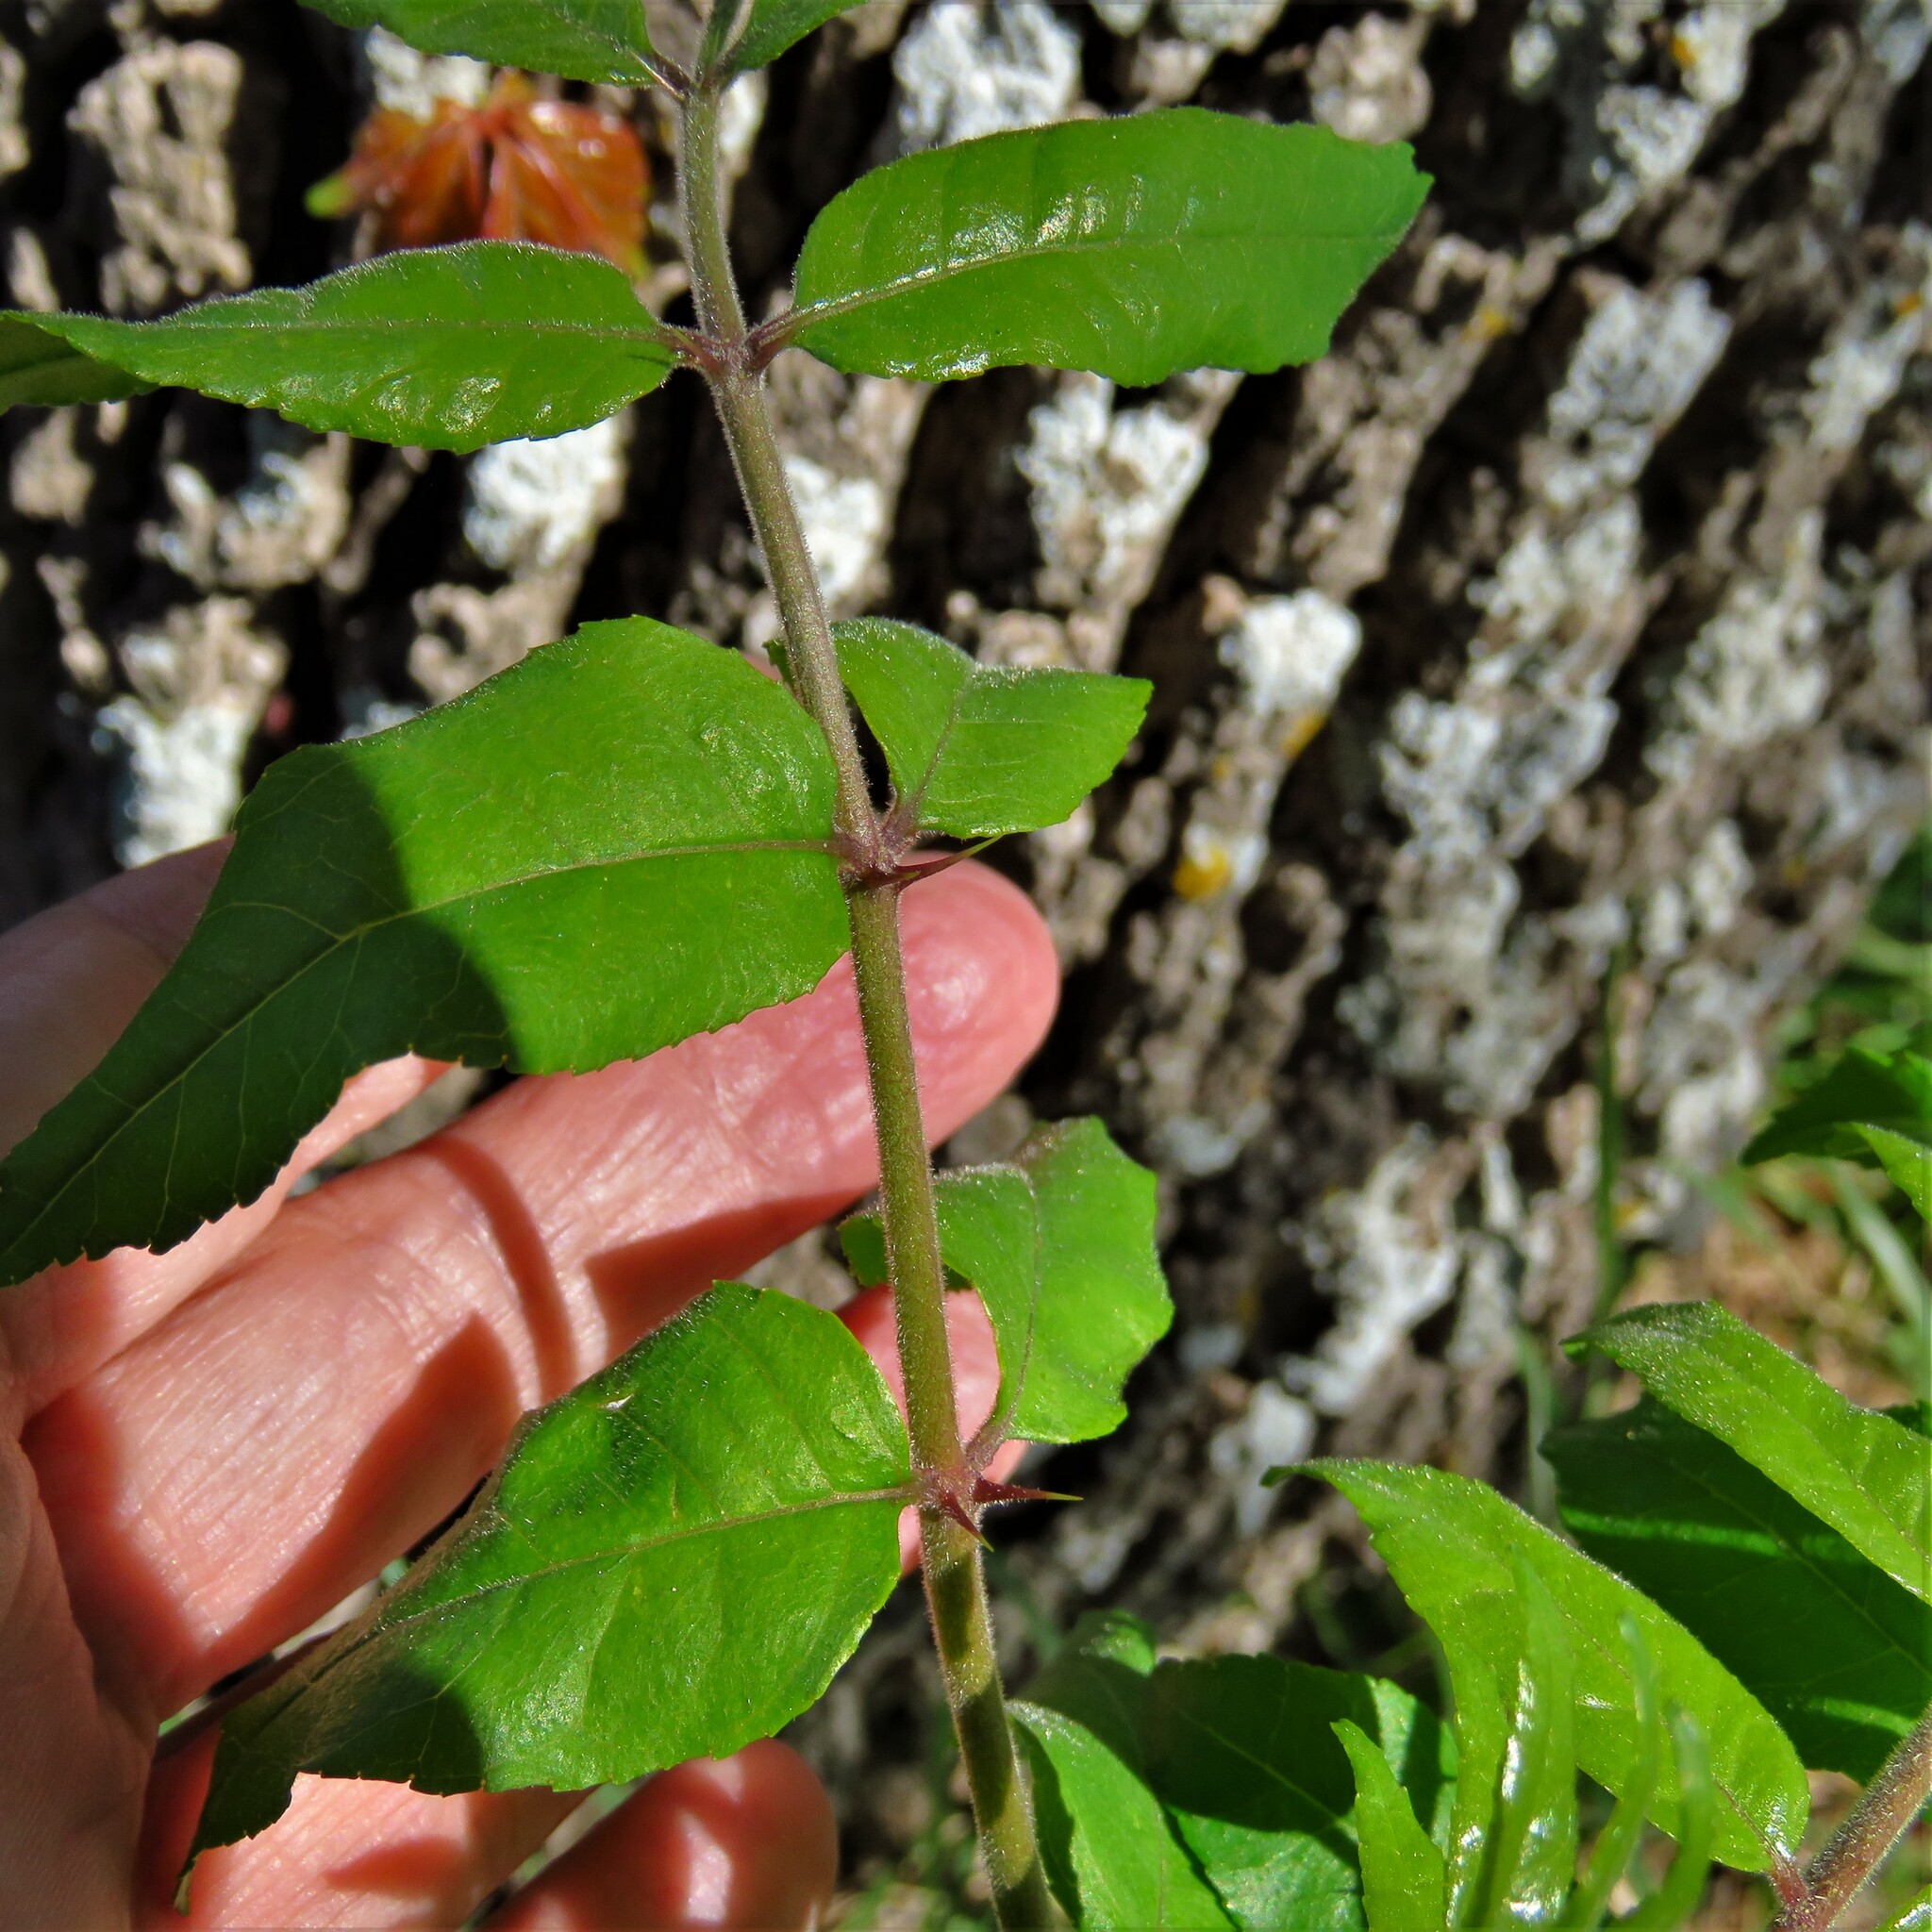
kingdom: Plantae
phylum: Tracheophyta
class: Magnoliopsida
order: Sapindales
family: Rutaceae
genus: Zanthoxylum
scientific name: Zanthoxylum clava-herculis
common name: Hercules'-club
